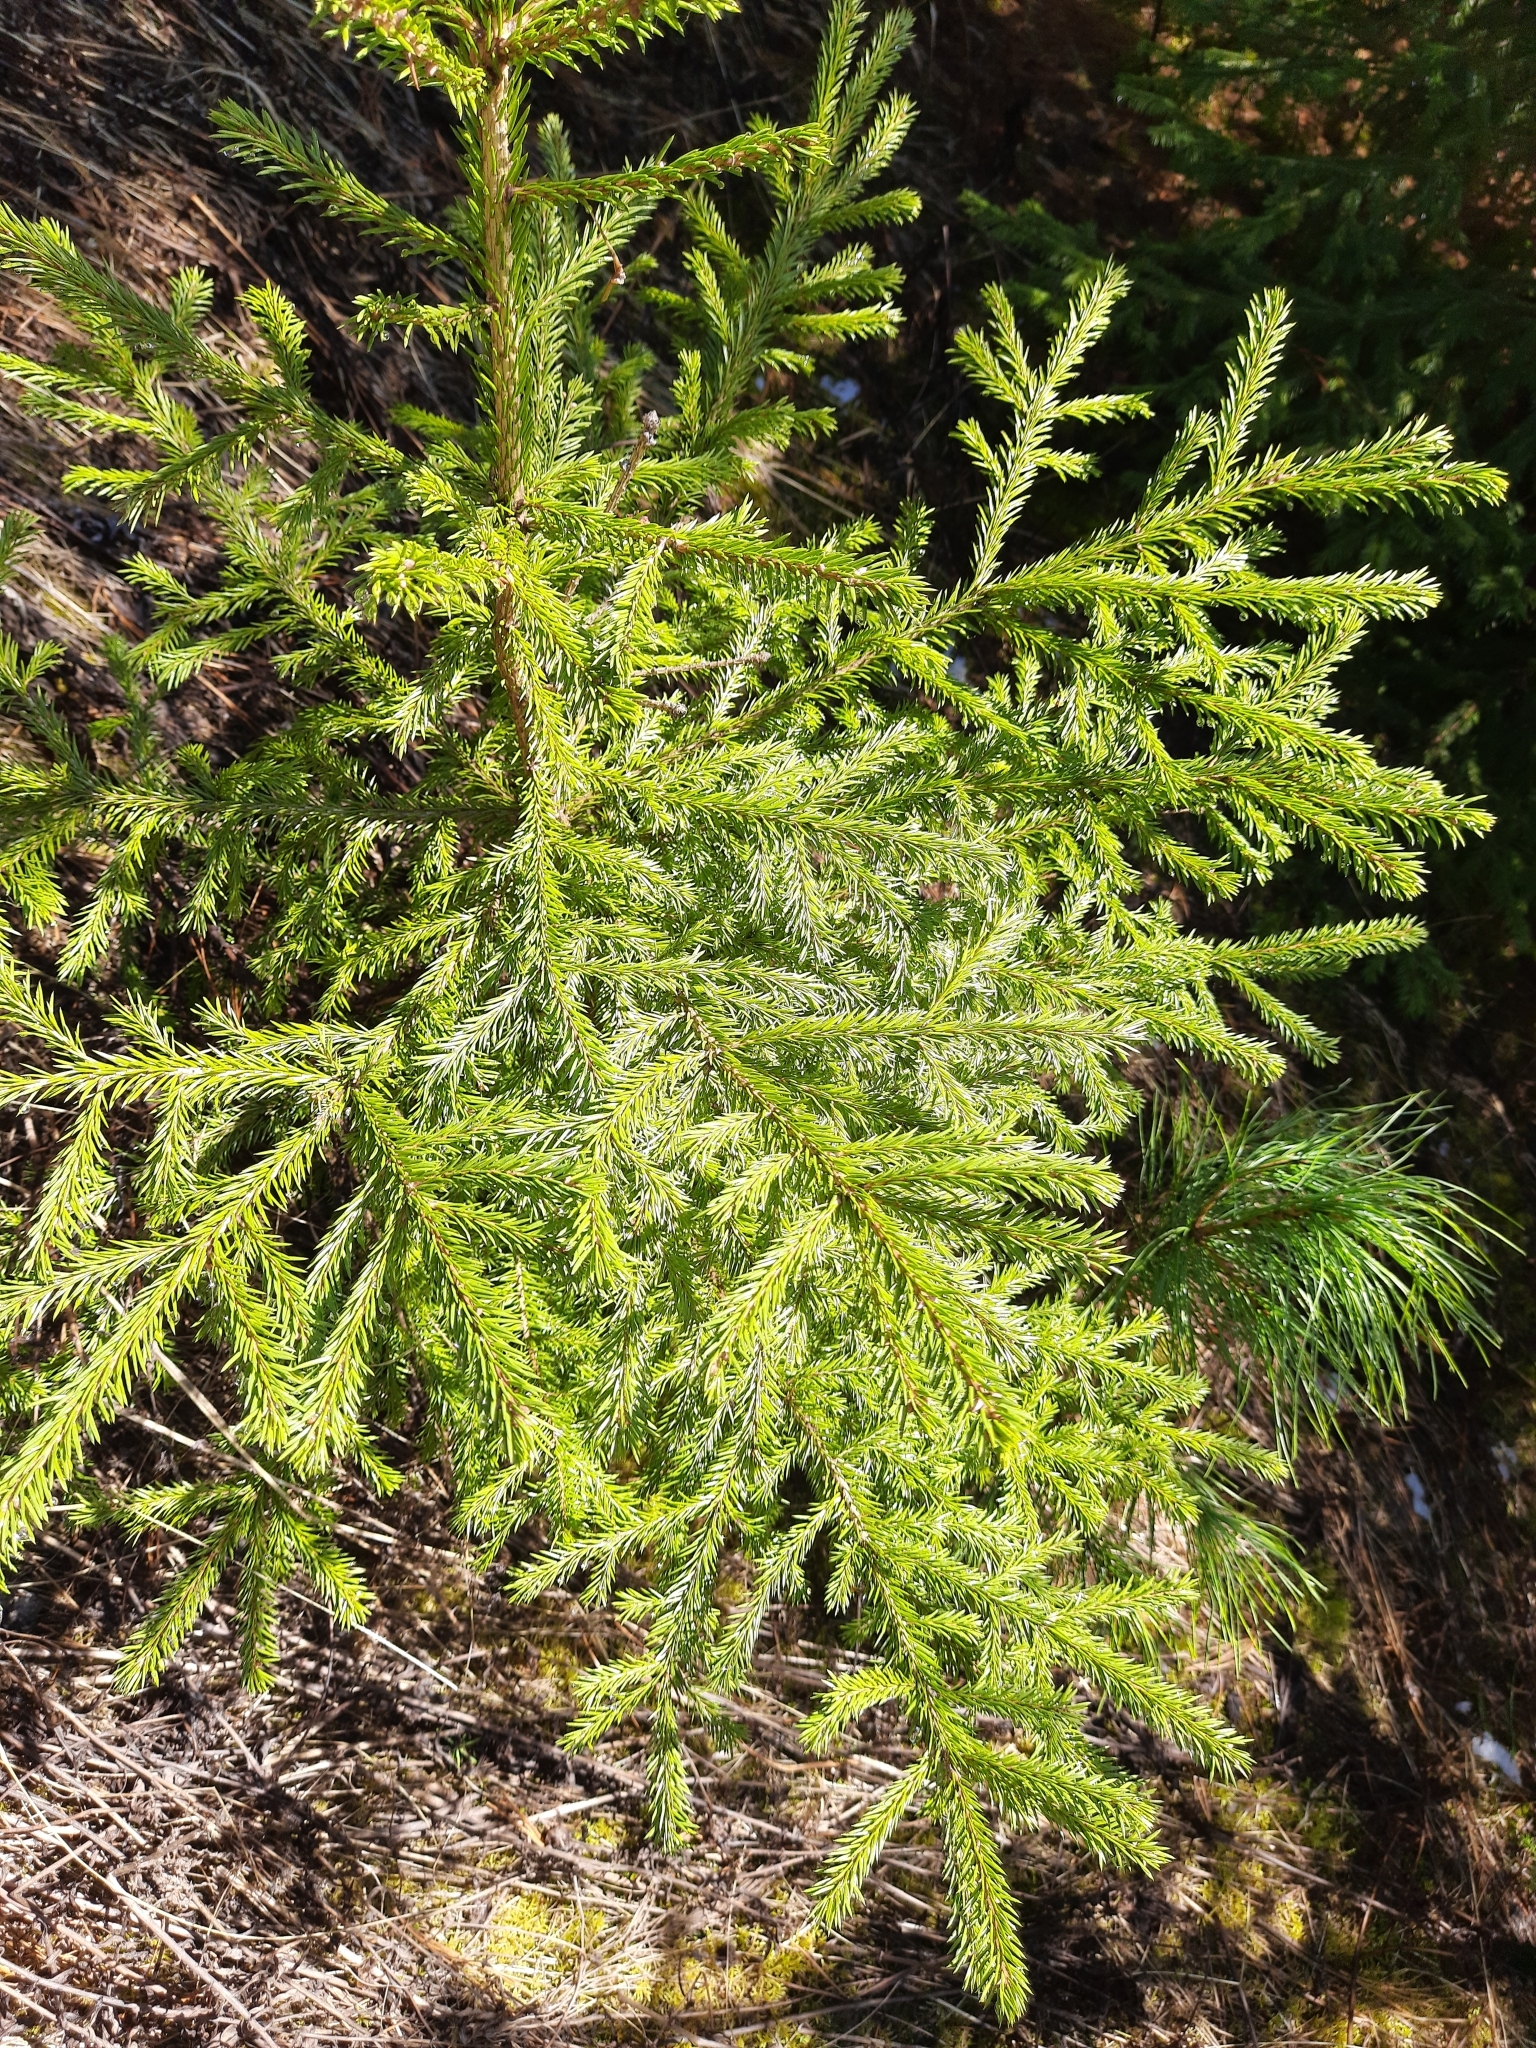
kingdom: Plantae
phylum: Tracheophyta
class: Pinopsida
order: Pinales
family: Pinaceae
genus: Picea
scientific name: Picea obovata
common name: Siberian spruce
